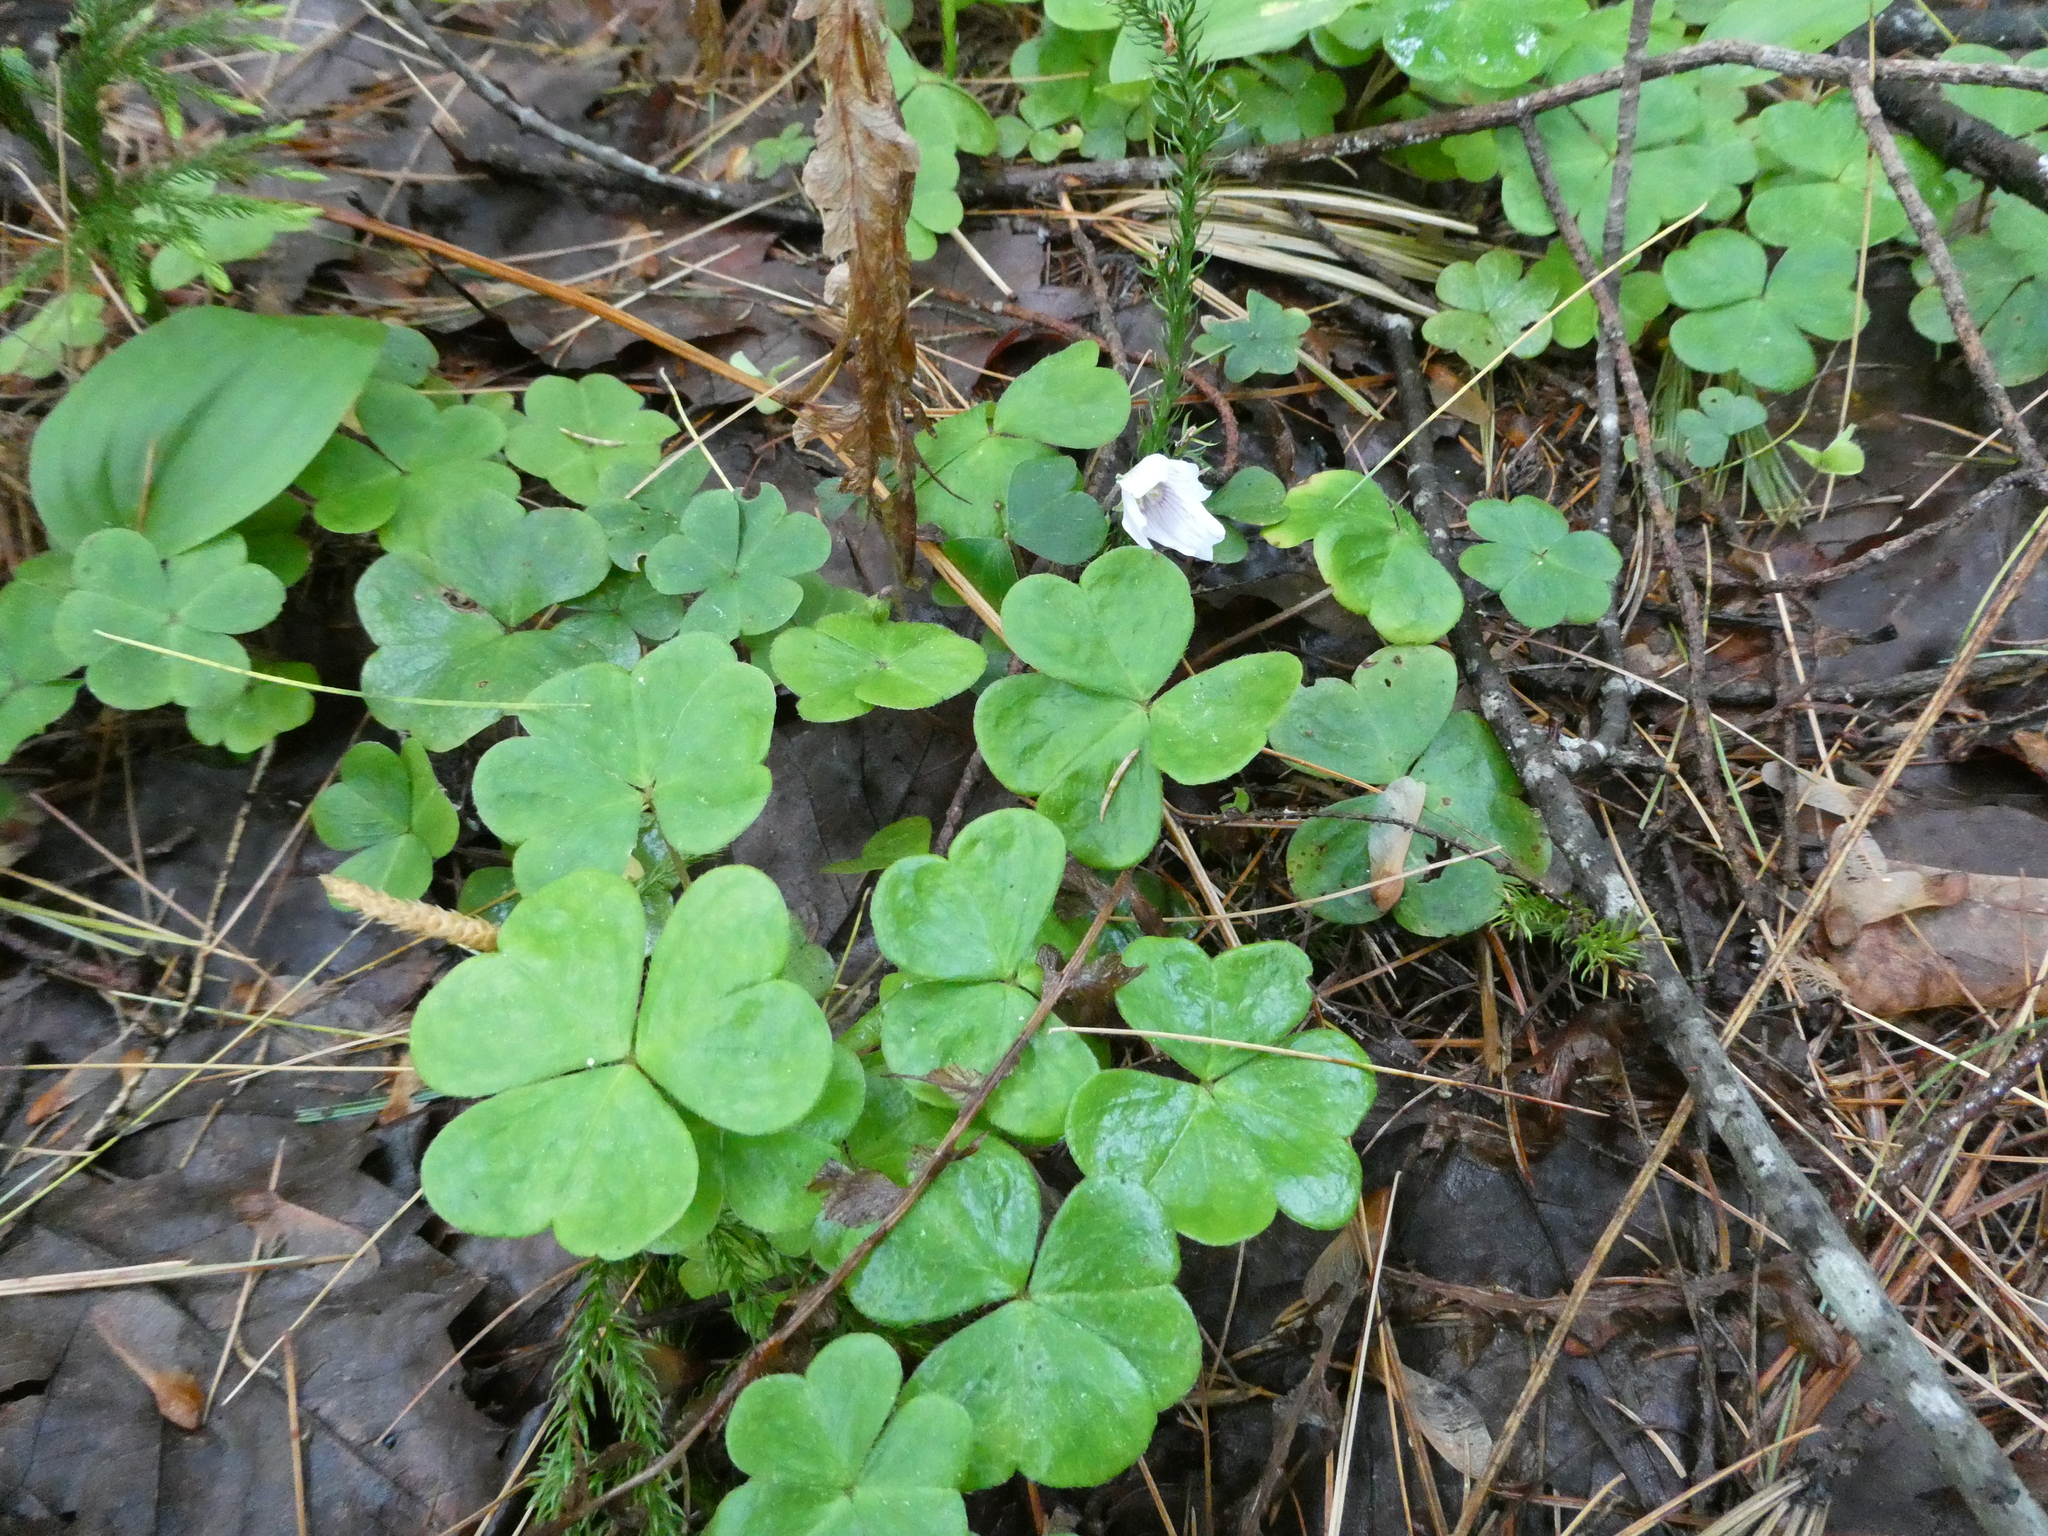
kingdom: Plantae
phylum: Tracheophyta
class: Magnoliopsida
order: Oxalidales
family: Oxalidaceae
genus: Oxalis
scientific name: Oxalis montana
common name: American wood-sorrel
